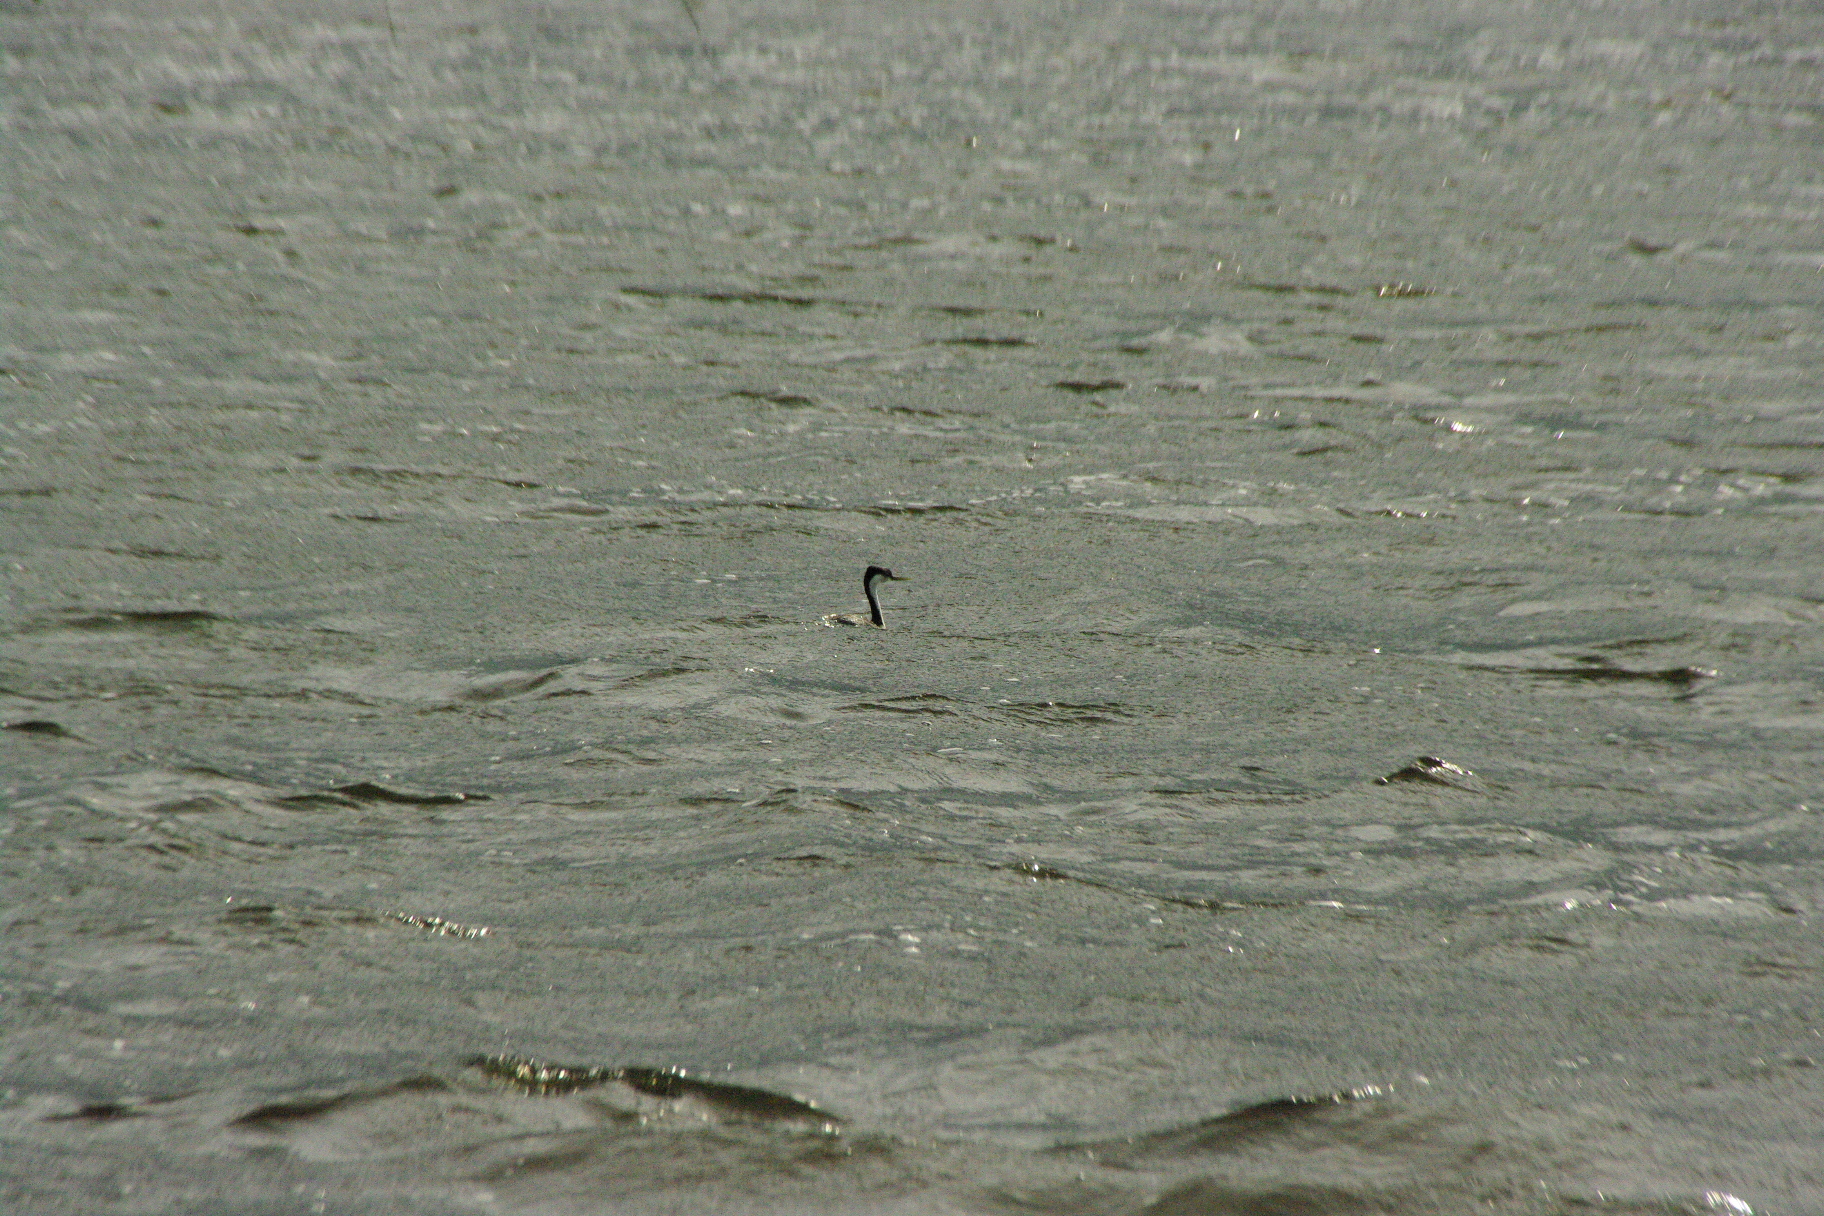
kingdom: Animalia
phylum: Chordata
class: Aves
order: Podicipediformes
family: Podicipedidae
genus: Aechmophorus
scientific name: Aechmophorus occidentalis
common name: Western grebe
